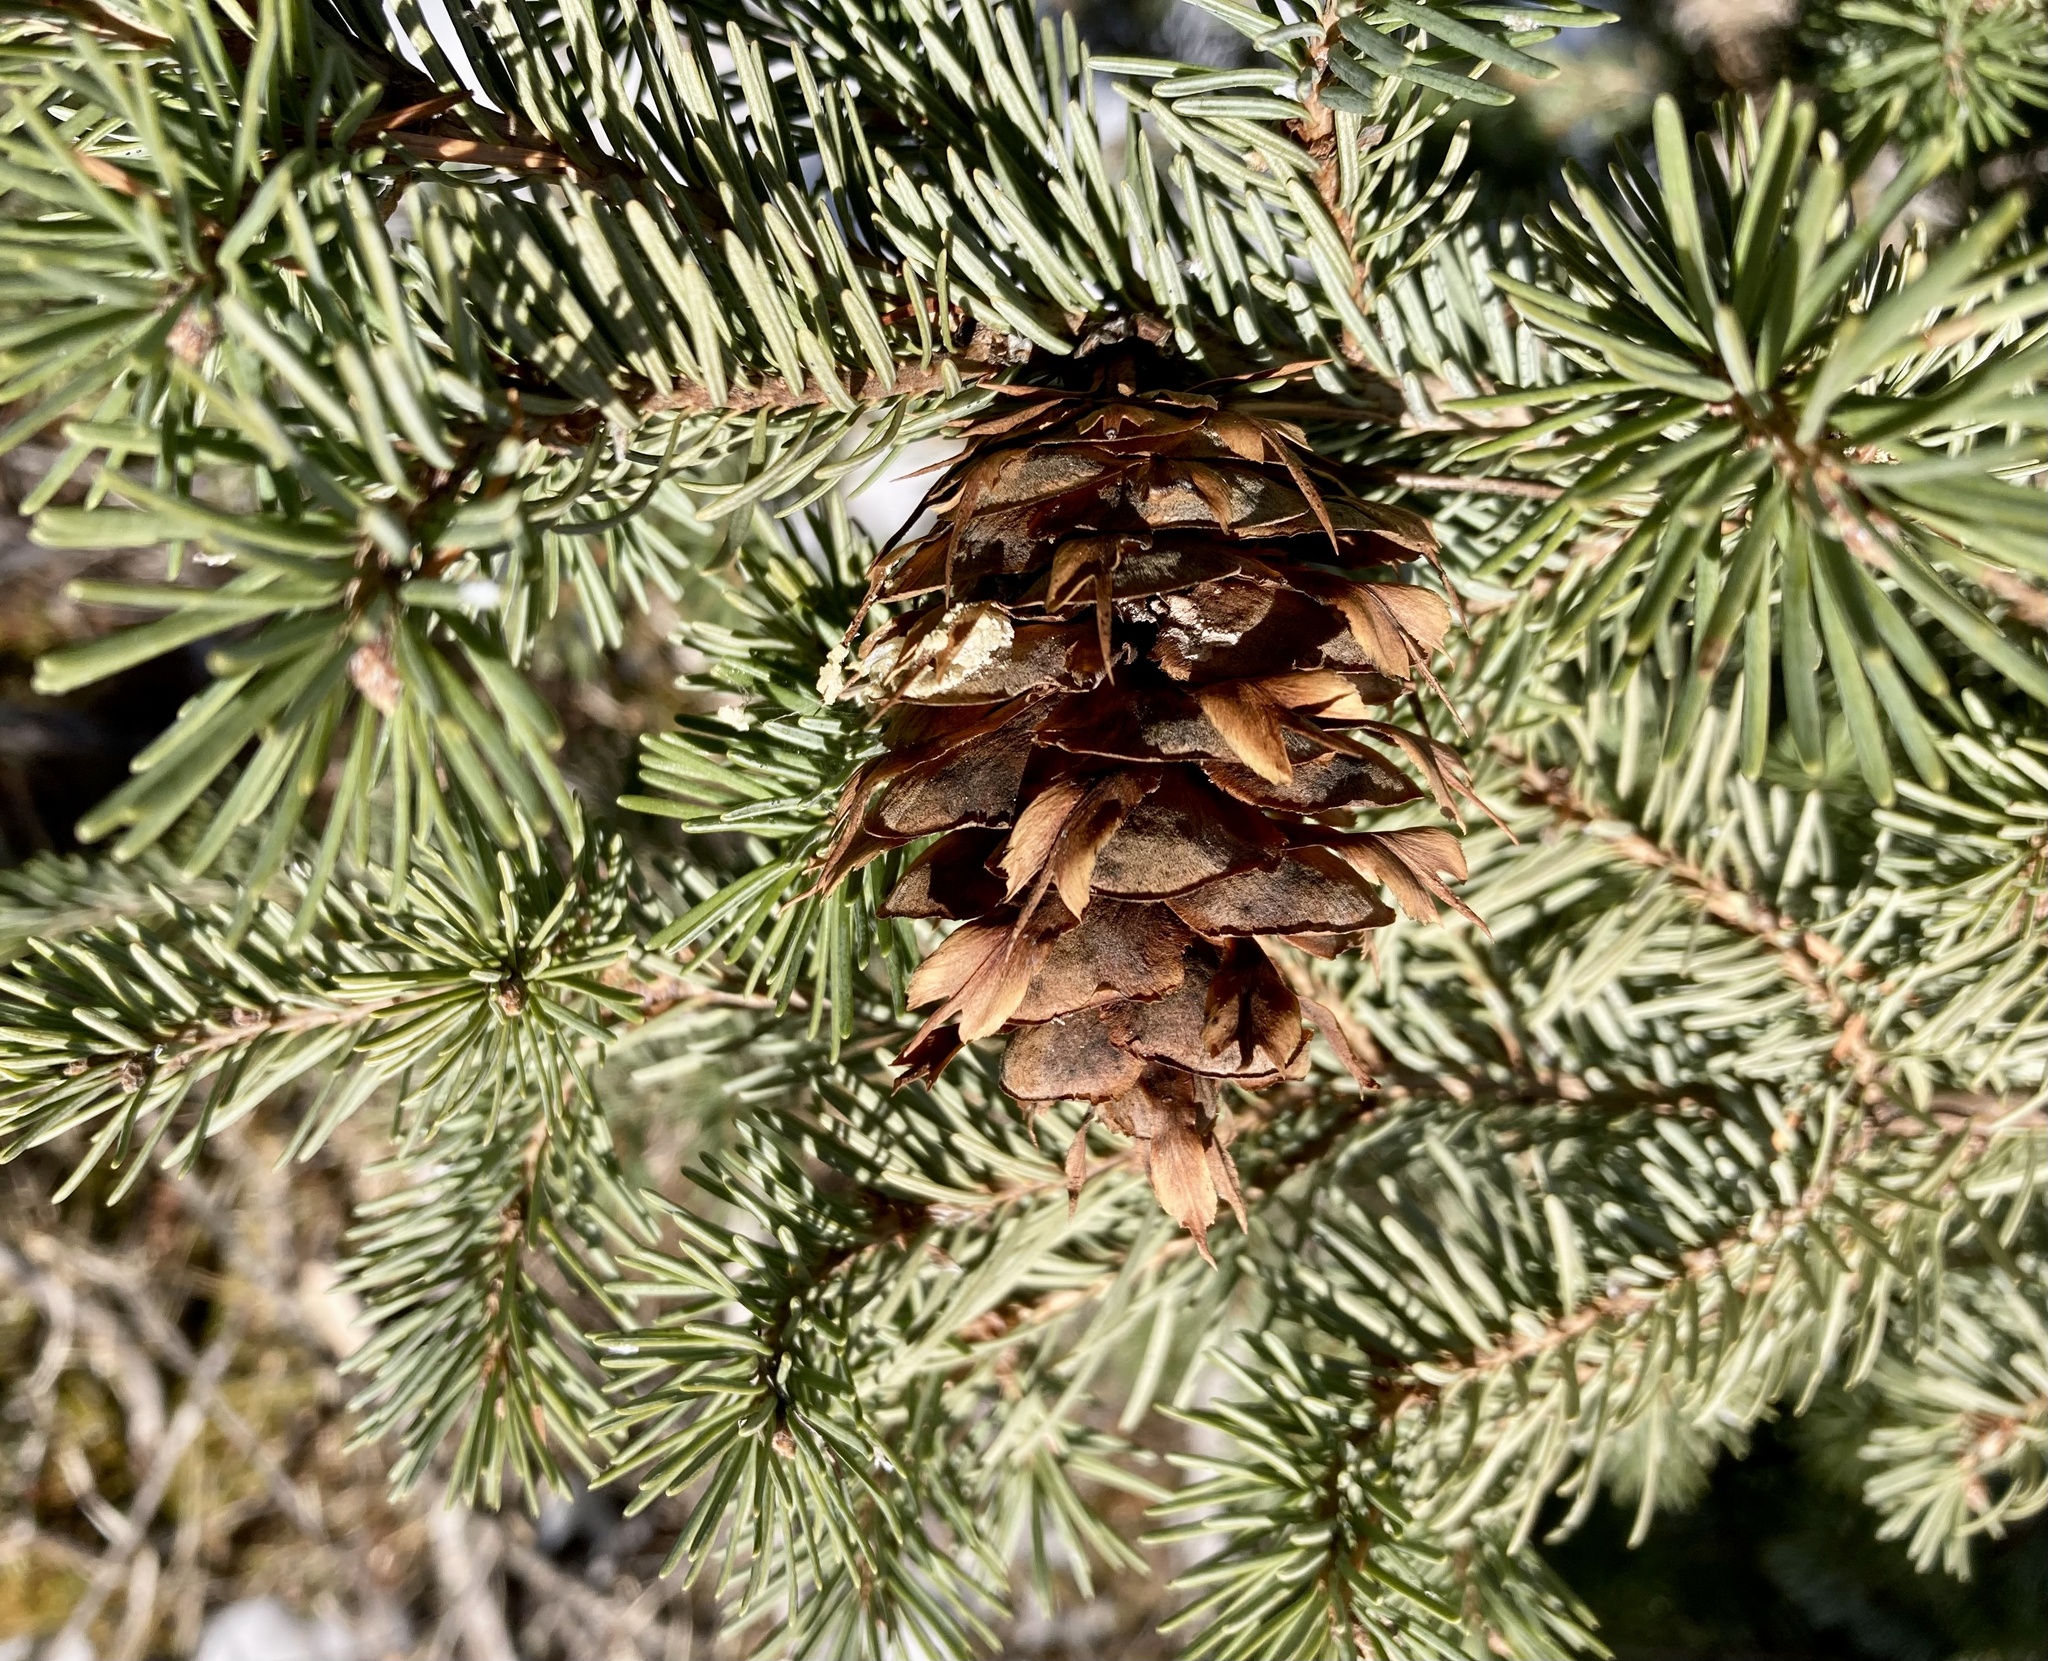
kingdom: Plantae
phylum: Tracheophyta
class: Pinopsida
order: Pinales
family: Pinaceae
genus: Pseudotsuga
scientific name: Pseudotsuga menziesii
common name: Douglas fir
